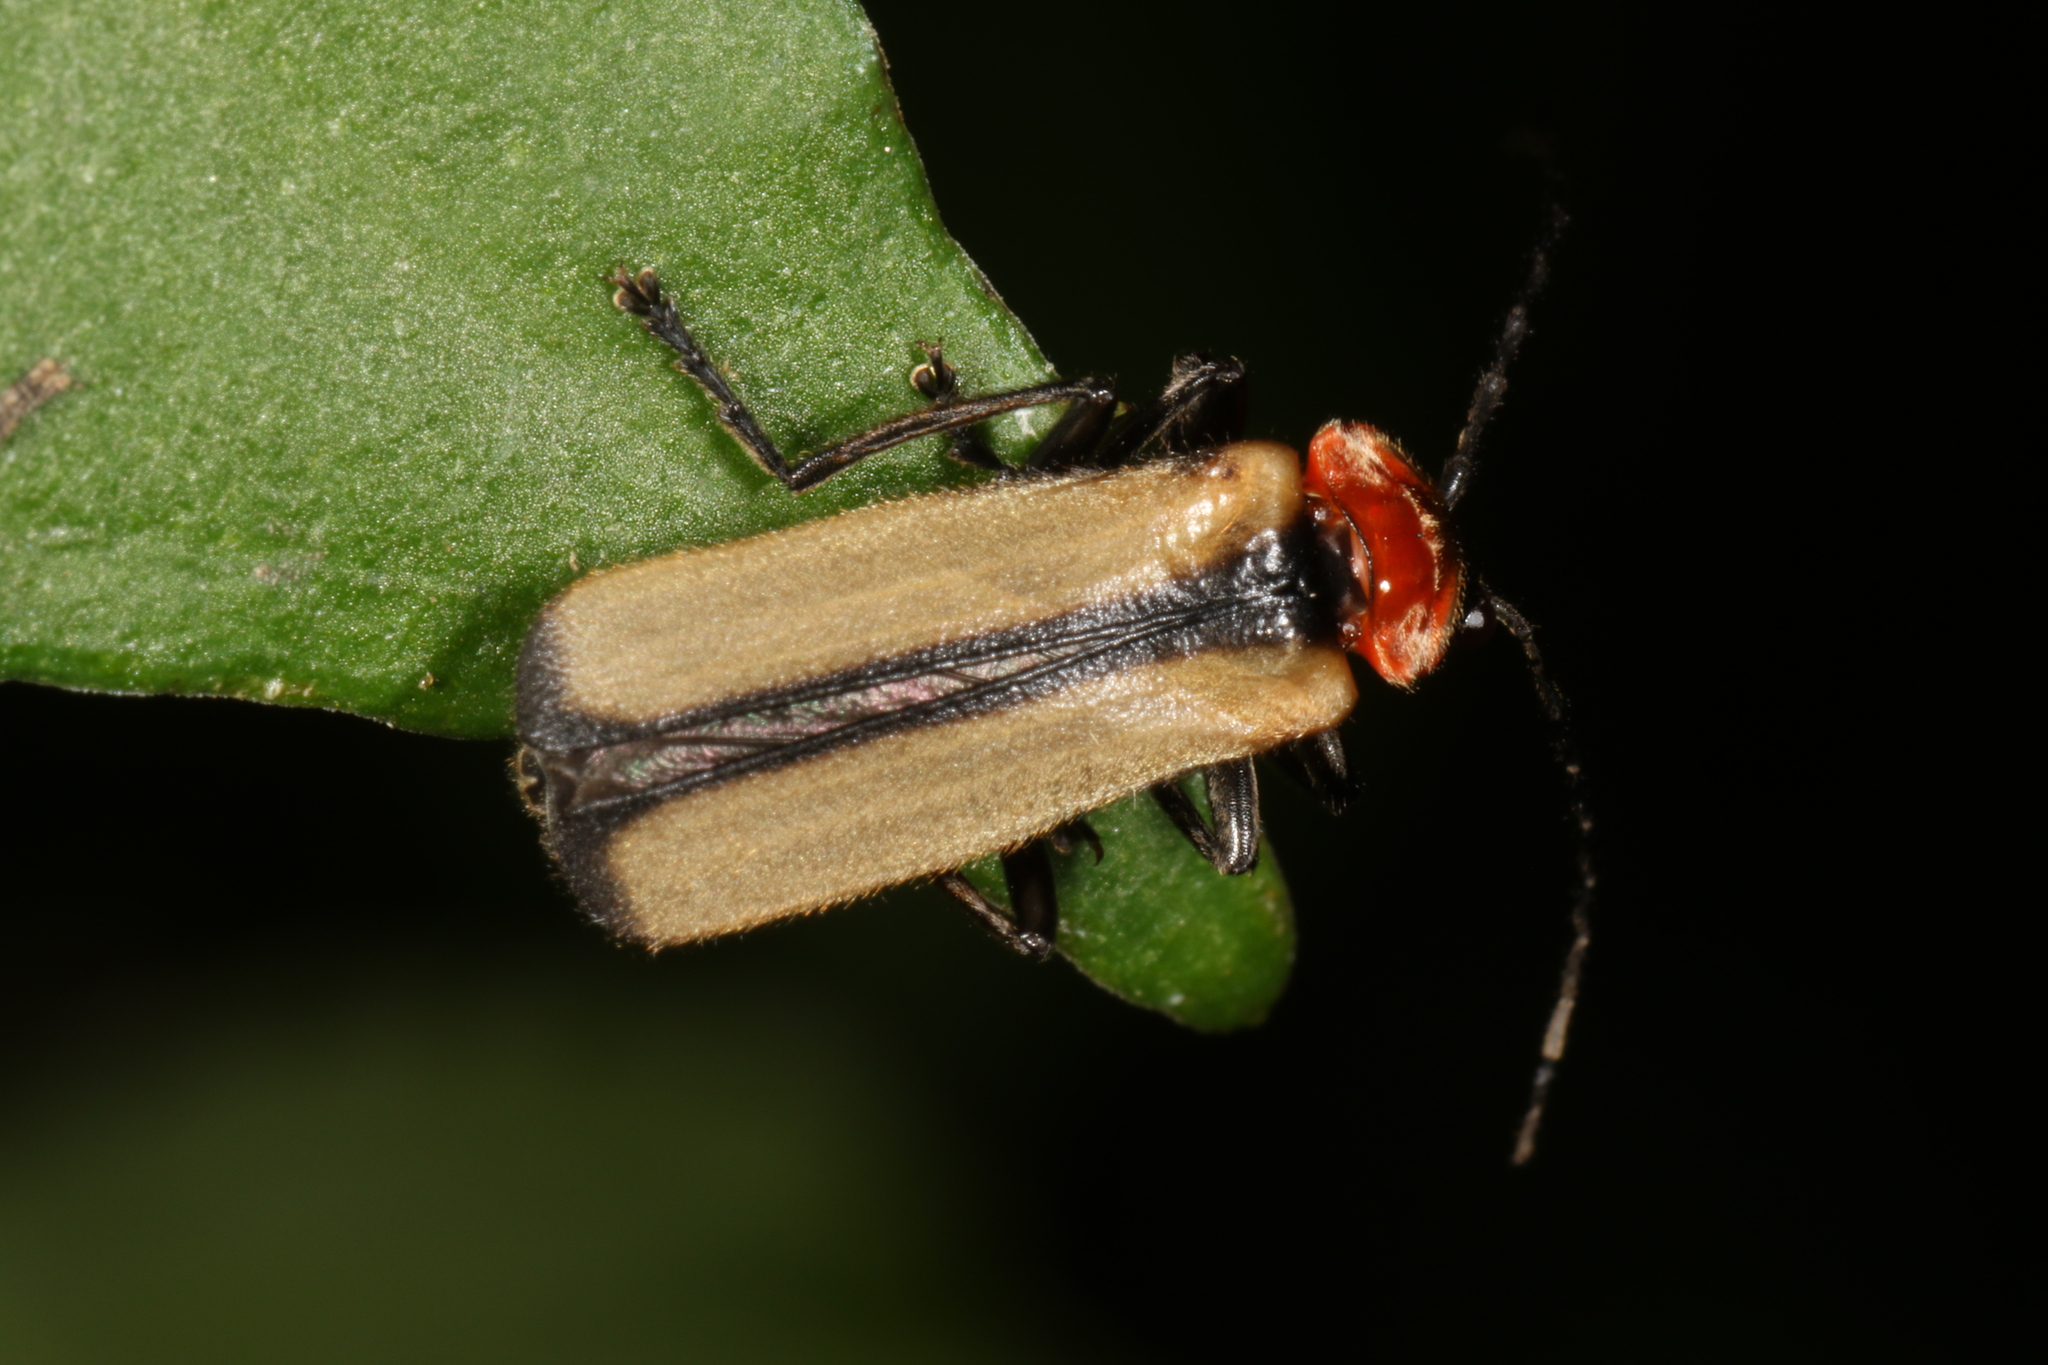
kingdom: Animalia
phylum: Arthropoda
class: Insecta
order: Coleoptera
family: Cantharidae
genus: Discodon
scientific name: Discodon
